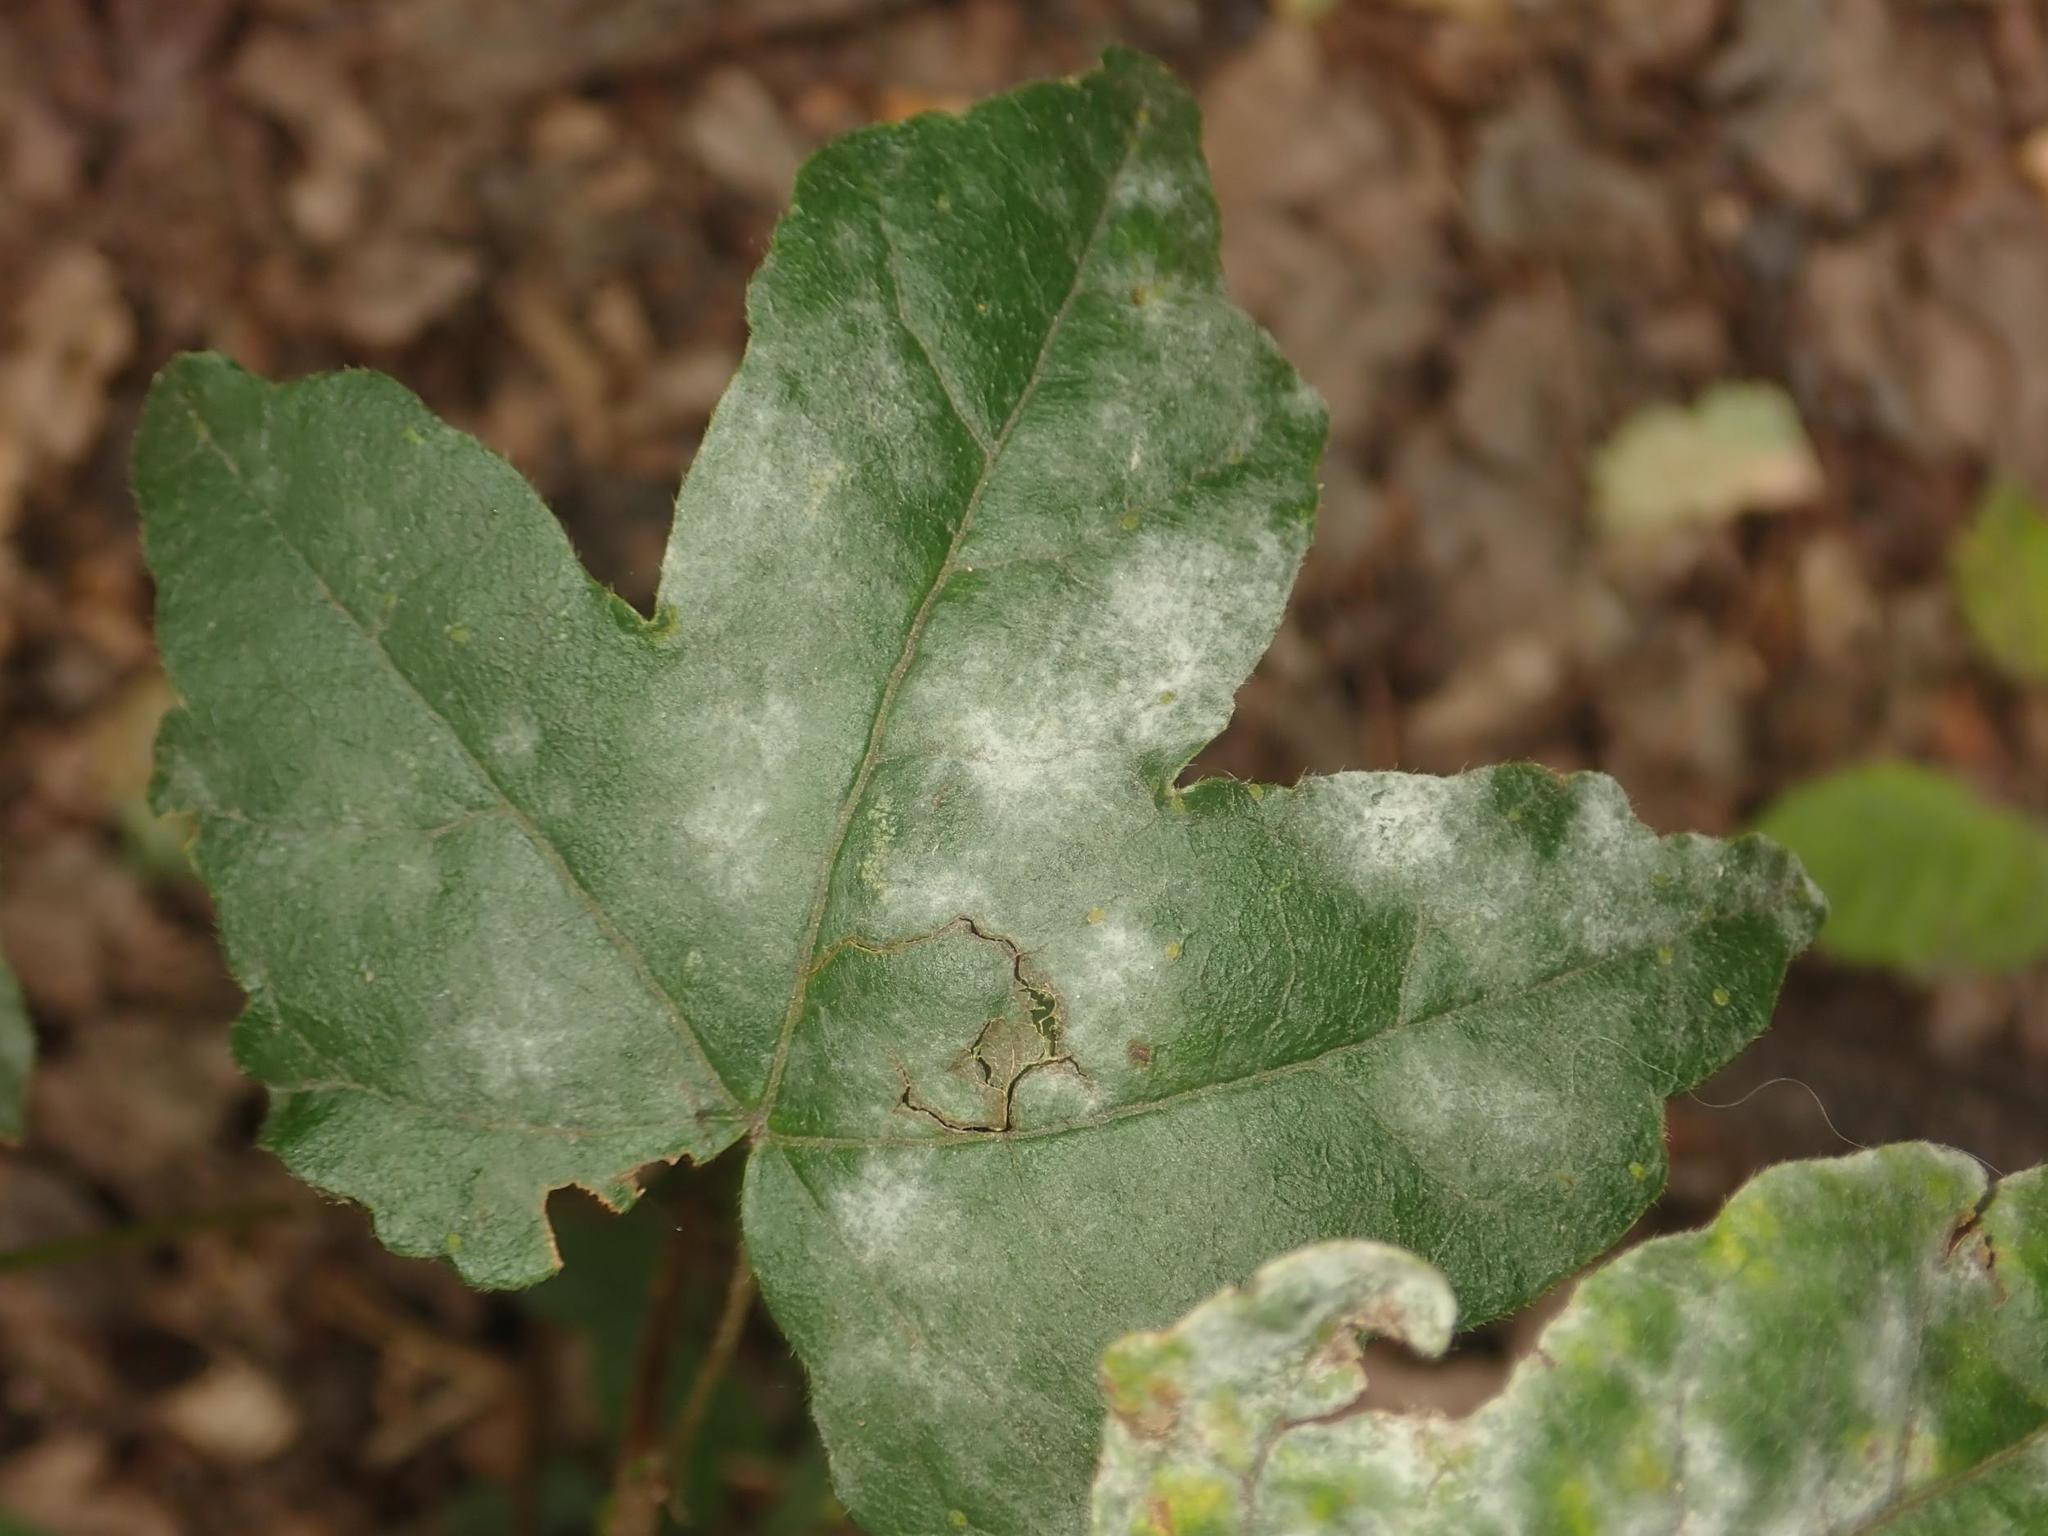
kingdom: Plantae
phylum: Tracheophyta
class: Magnoliopsida
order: Sapindales
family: Sapindaceae
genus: Acer
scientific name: Acer campestre
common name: Field maple
